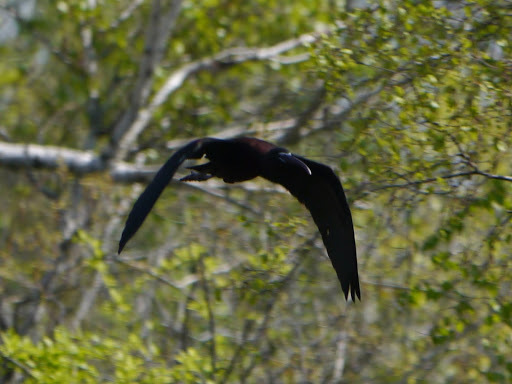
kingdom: Animalia
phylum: Chordata
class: Aves
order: Pelecaniformes
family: Threskiornithidae
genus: Plegadis
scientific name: Plegadis falcinellus
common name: Glossy ibis
